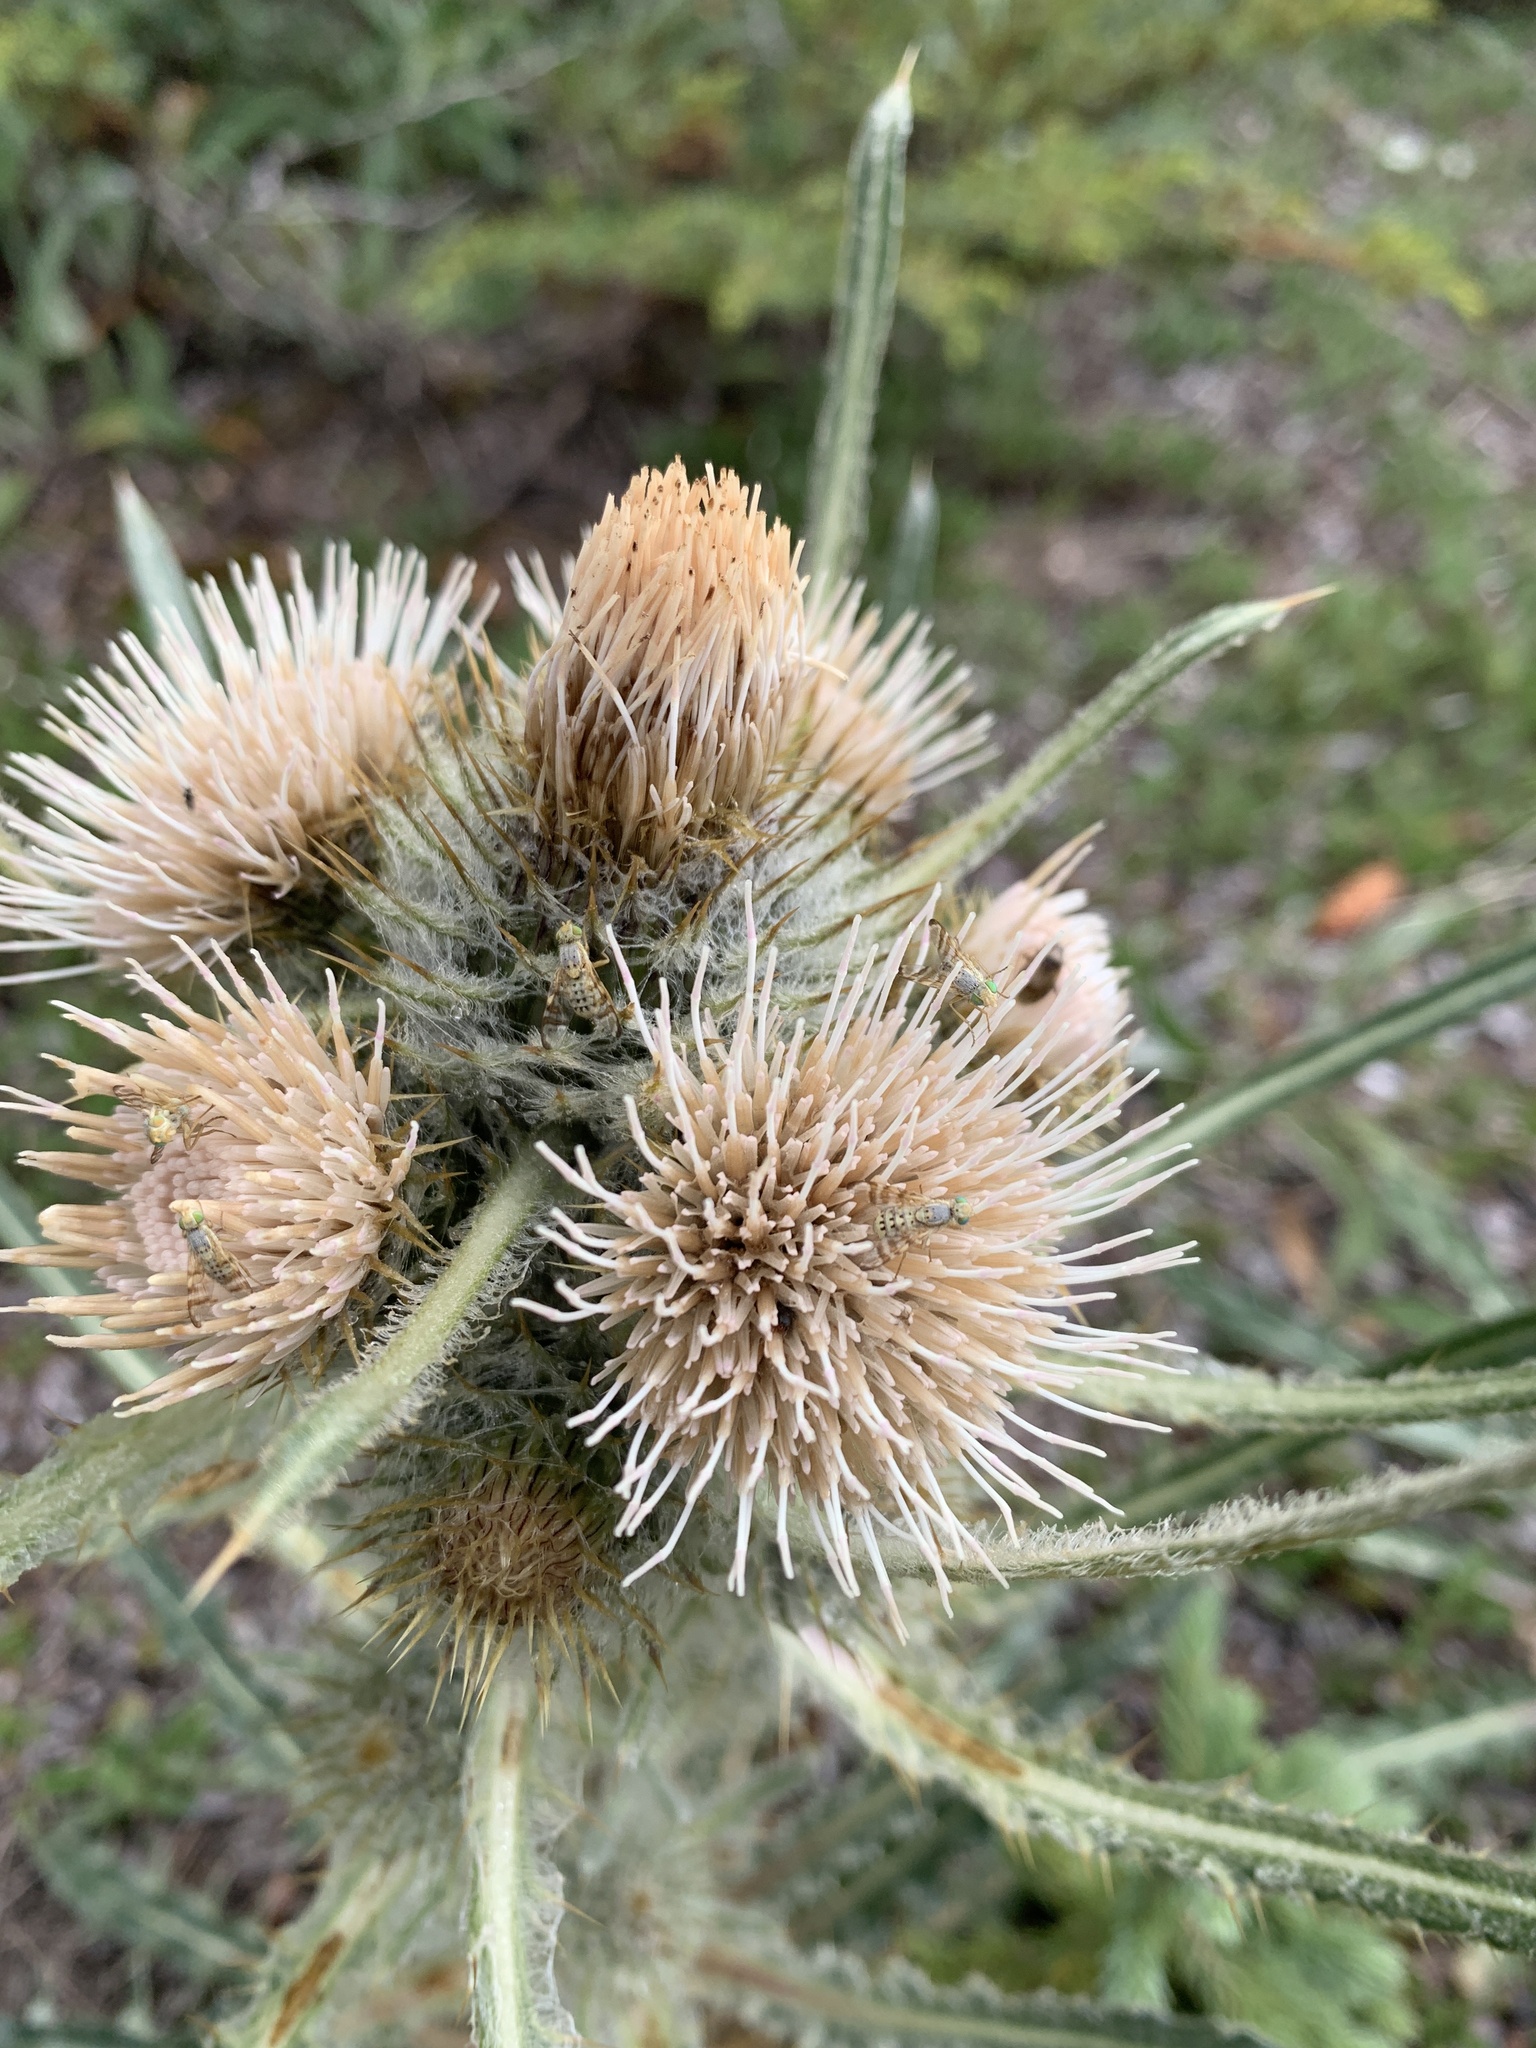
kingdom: Plantae
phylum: Tracheophyta
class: Magnoliopsida
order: Asterales
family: Asteraceae
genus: Cirsium
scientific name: Cirsium hookerianum
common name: Hooker's thistle
